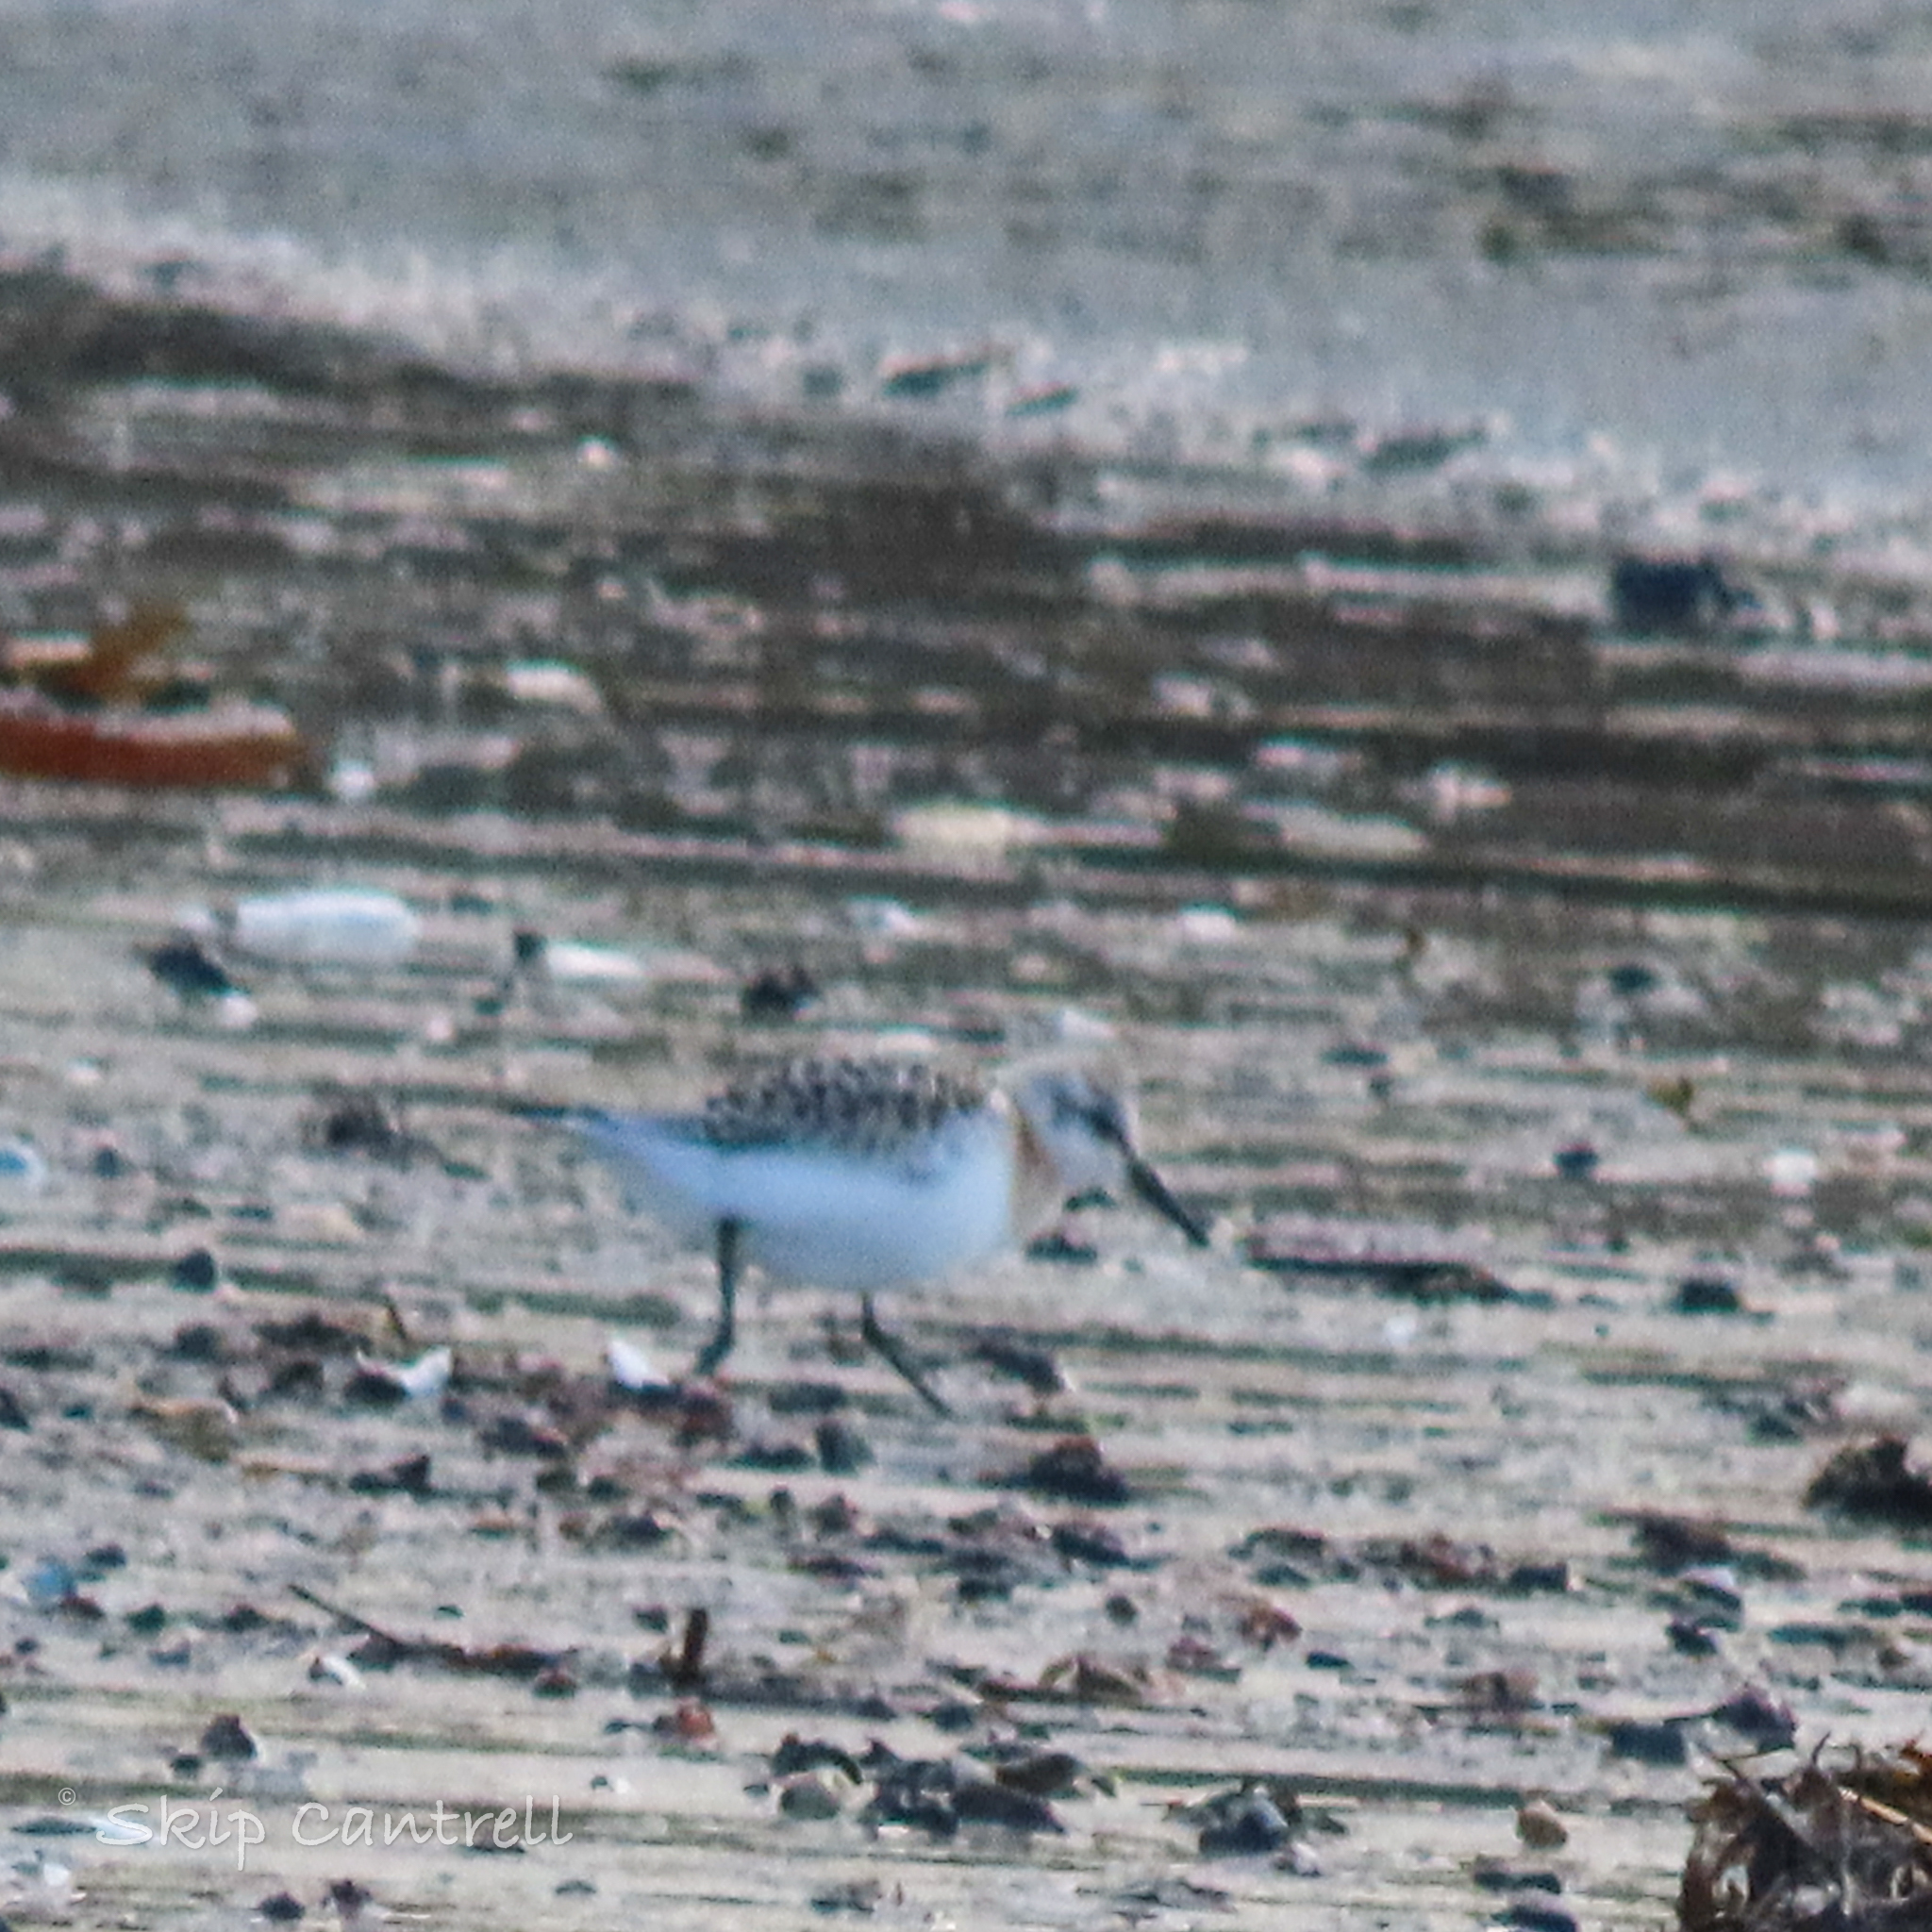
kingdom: Animalia
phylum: Chordata
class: Aves
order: Charadriiformes
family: Scolopacidae
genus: Calidris
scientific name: Calidris alba
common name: Sanderling
